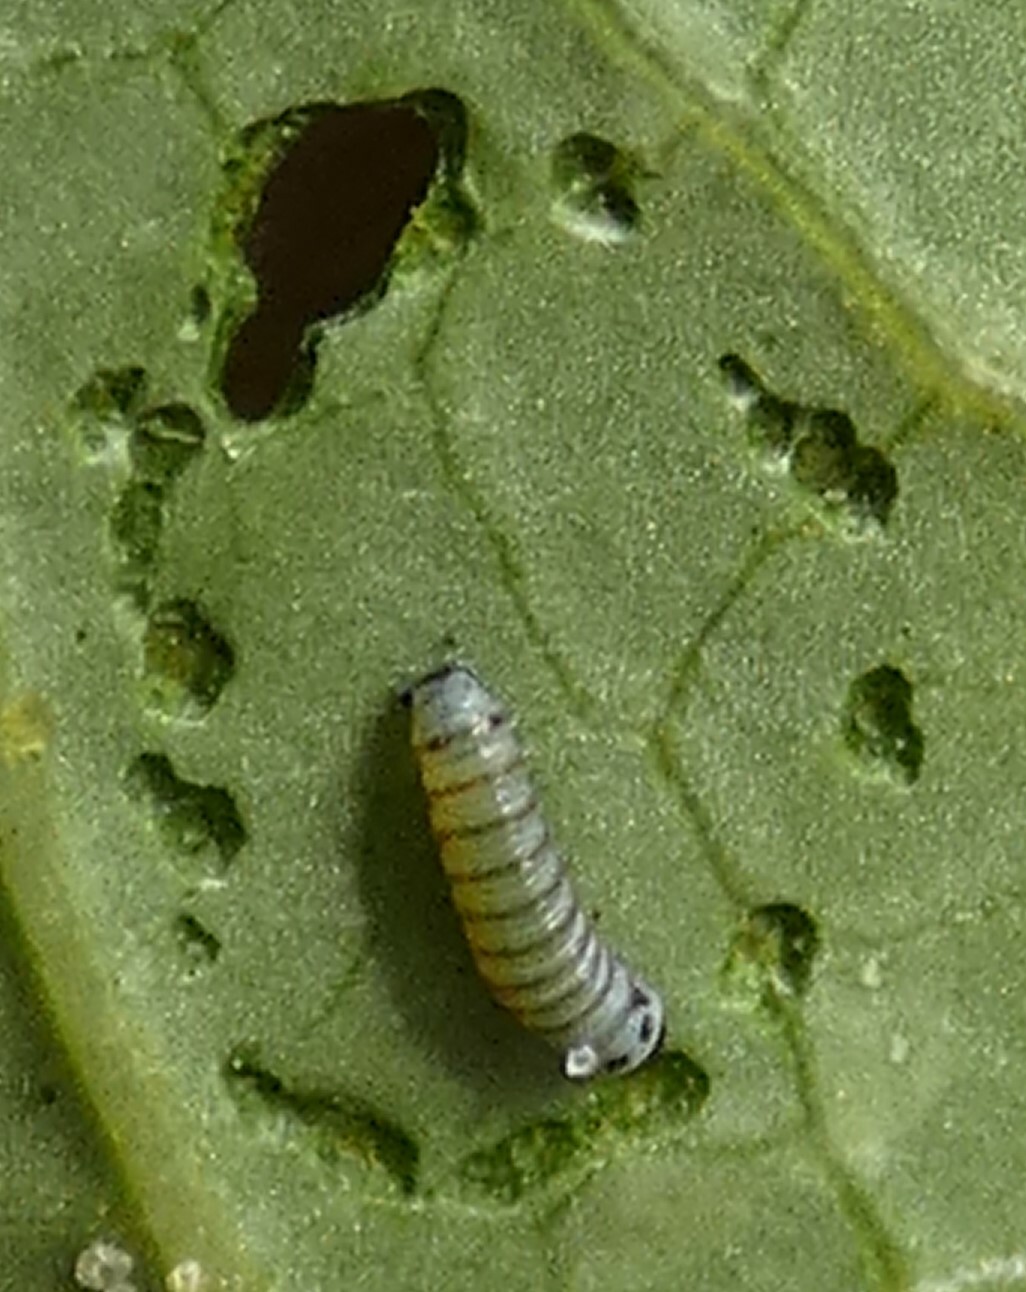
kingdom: Animalia
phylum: Arthropoda
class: Insecta
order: Lepidoptera
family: Nymphalidae
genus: Danaus
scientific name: Danaus plexippus
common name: Monarch
